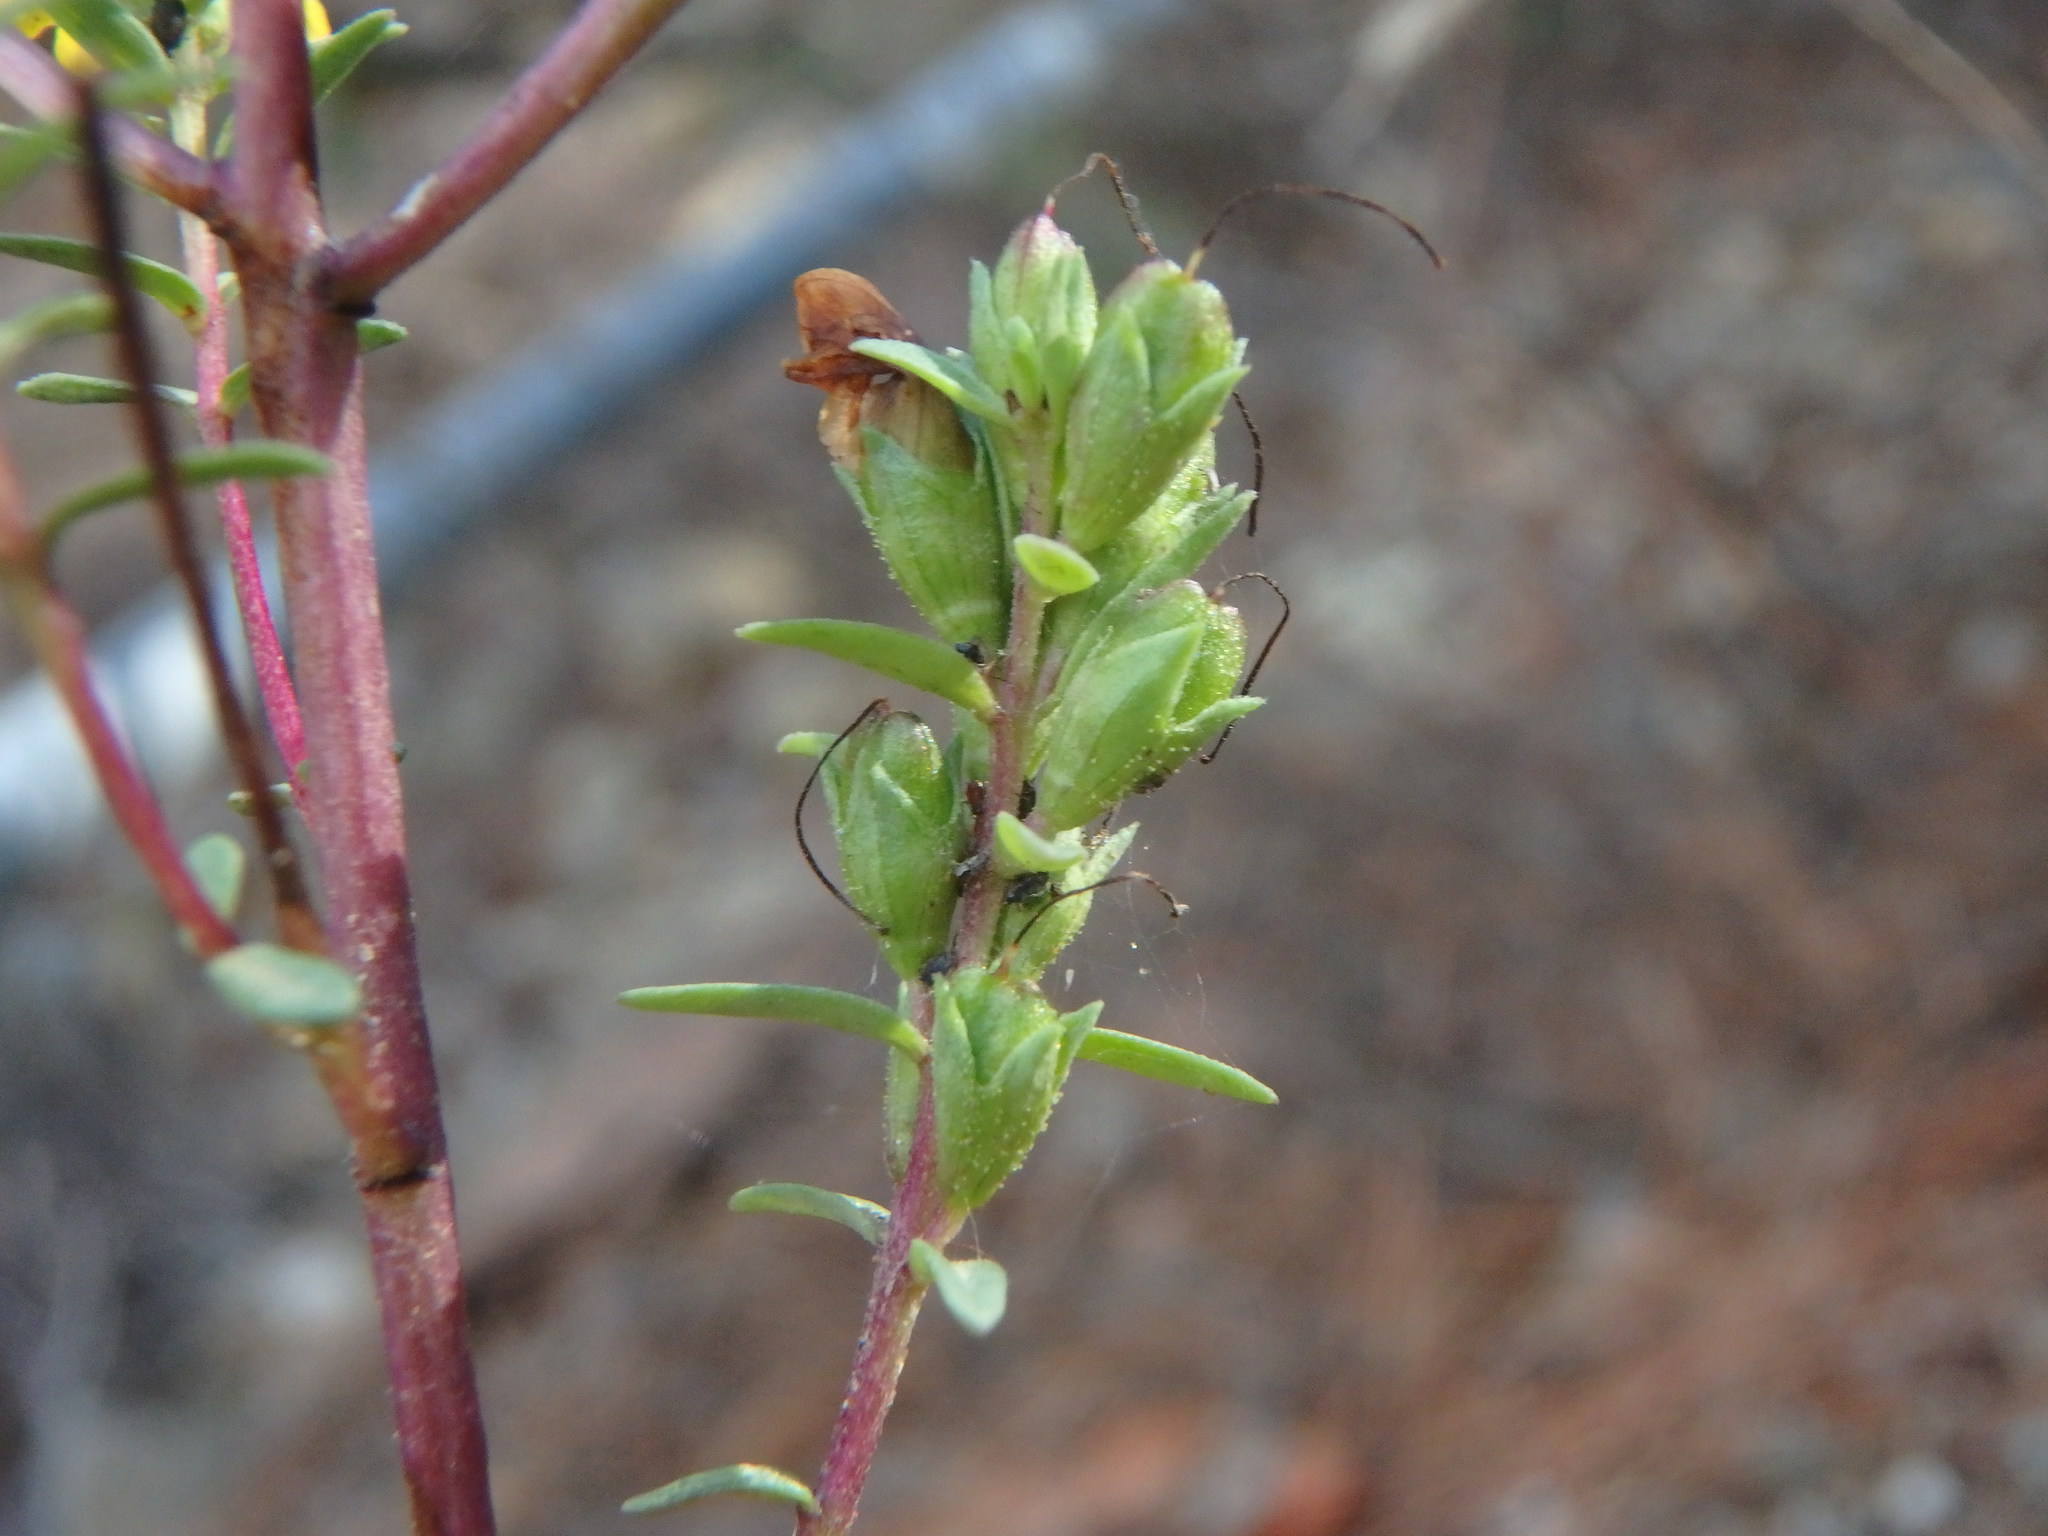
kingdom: Plantae
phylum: Tracheophyta
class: Magnoliopsida
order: Lamiales
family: Orobanchaceae
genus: Odontites
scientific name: Odontites linkii
